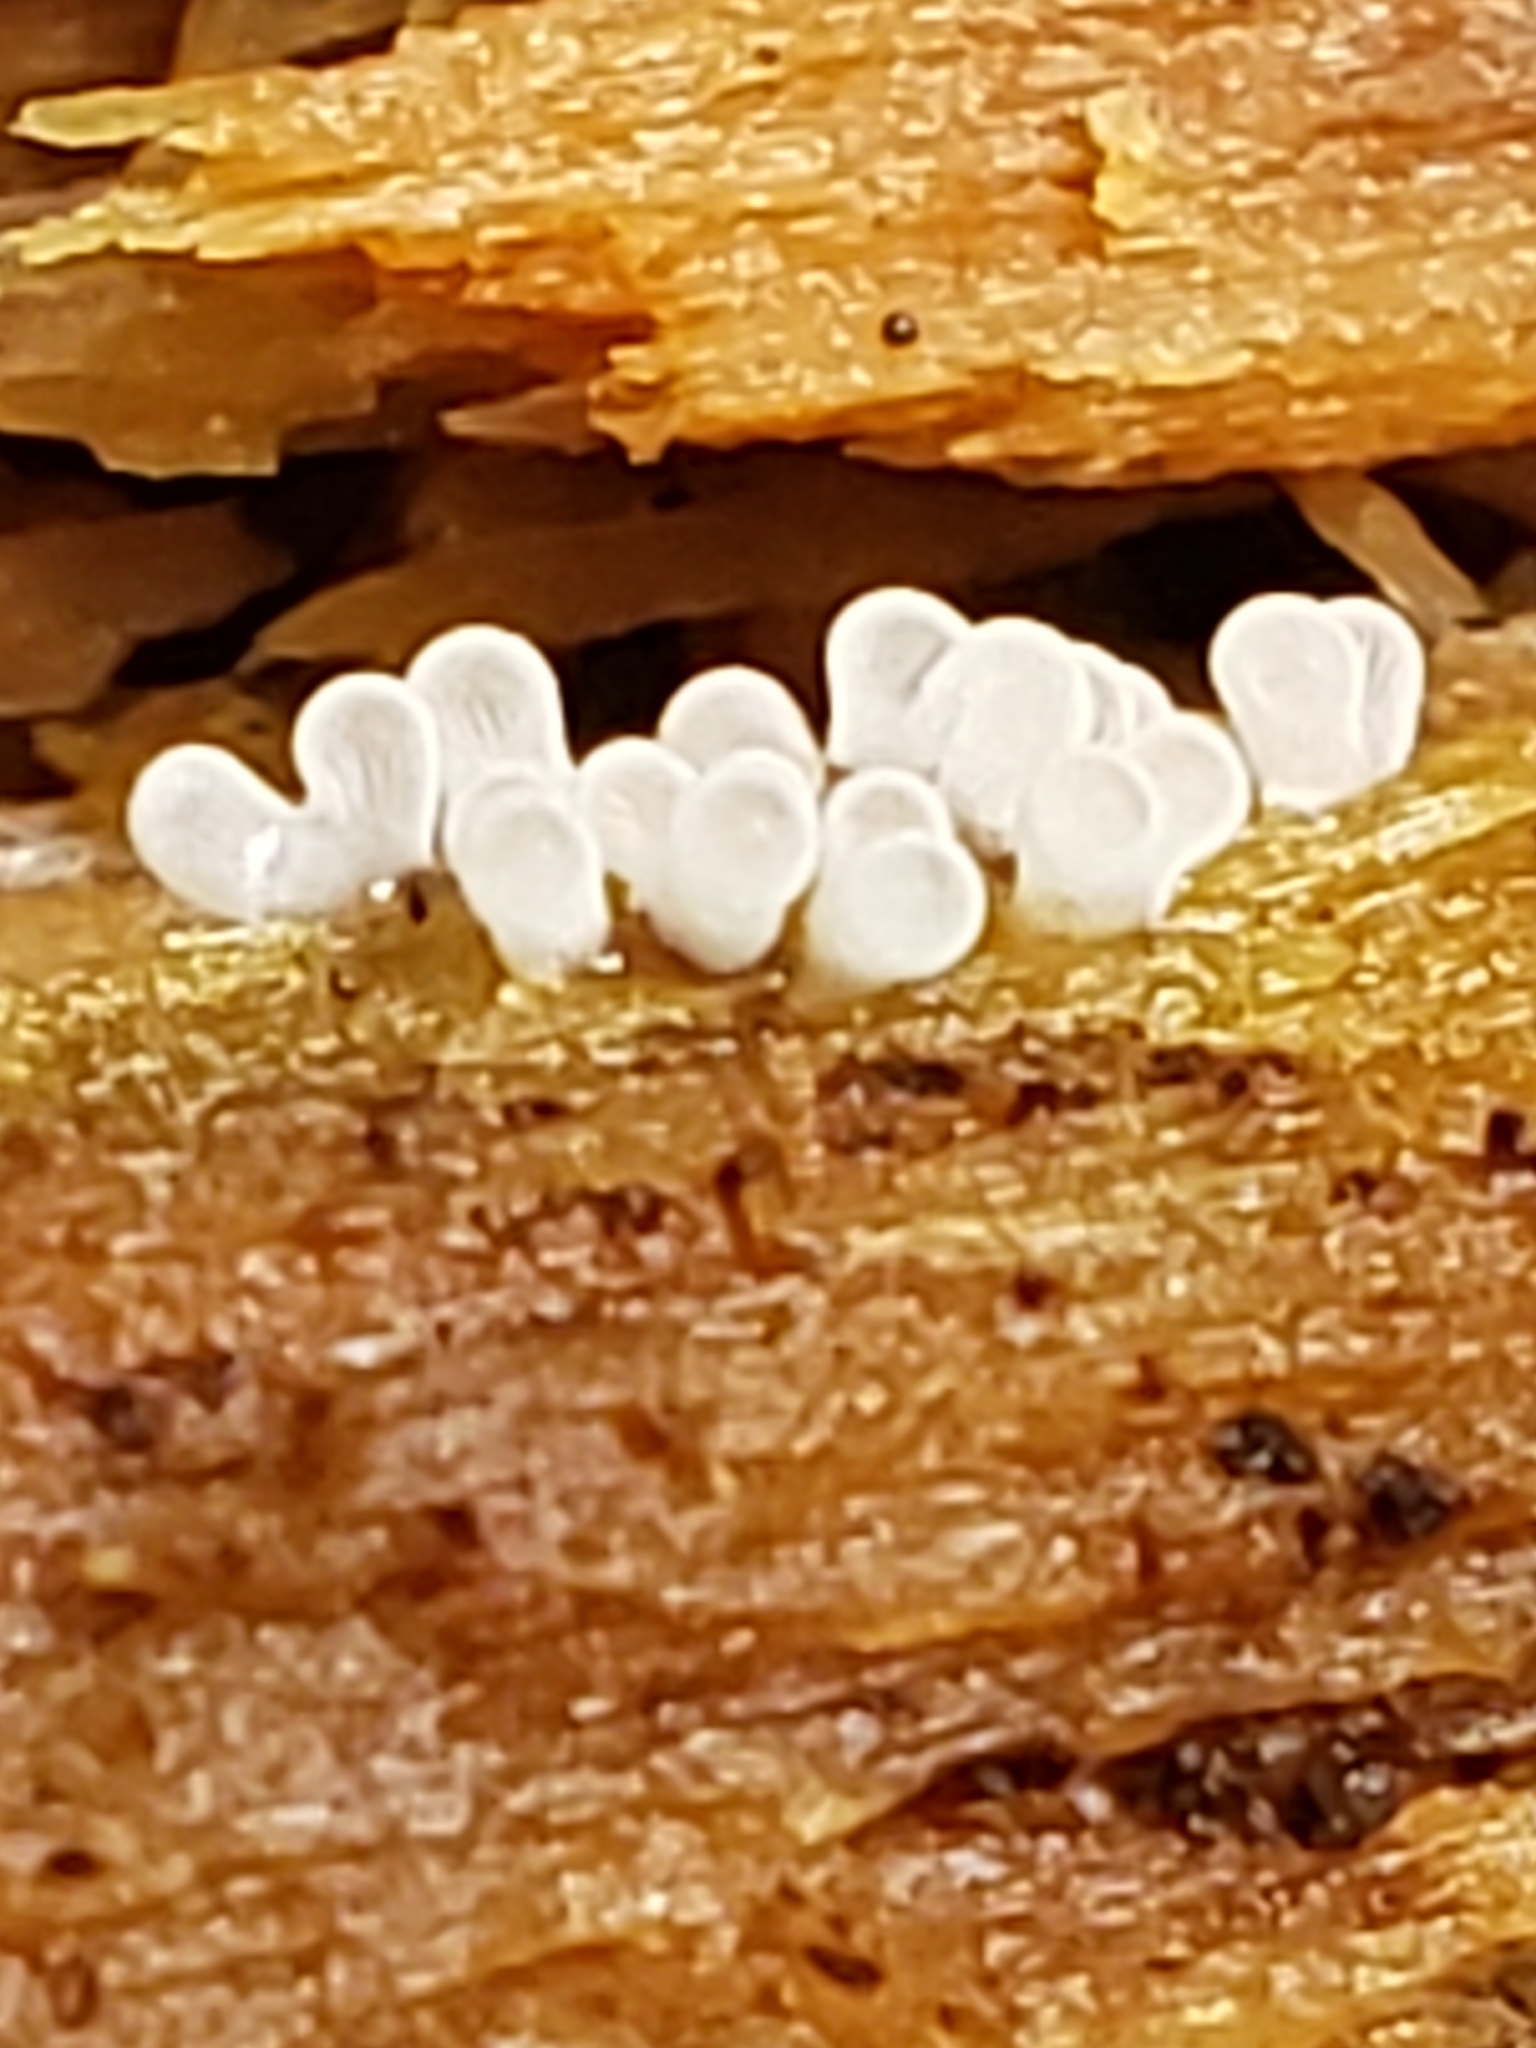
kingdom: Protozoa
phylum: Mycetozoa
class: Protosteliomycetes
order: Ceratiomyxales
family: Ceratiomyxaceae
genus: Ceratiomyxa
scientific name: Ceratiomyxa fruticulosa
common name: Honeycomb coral slime mold
